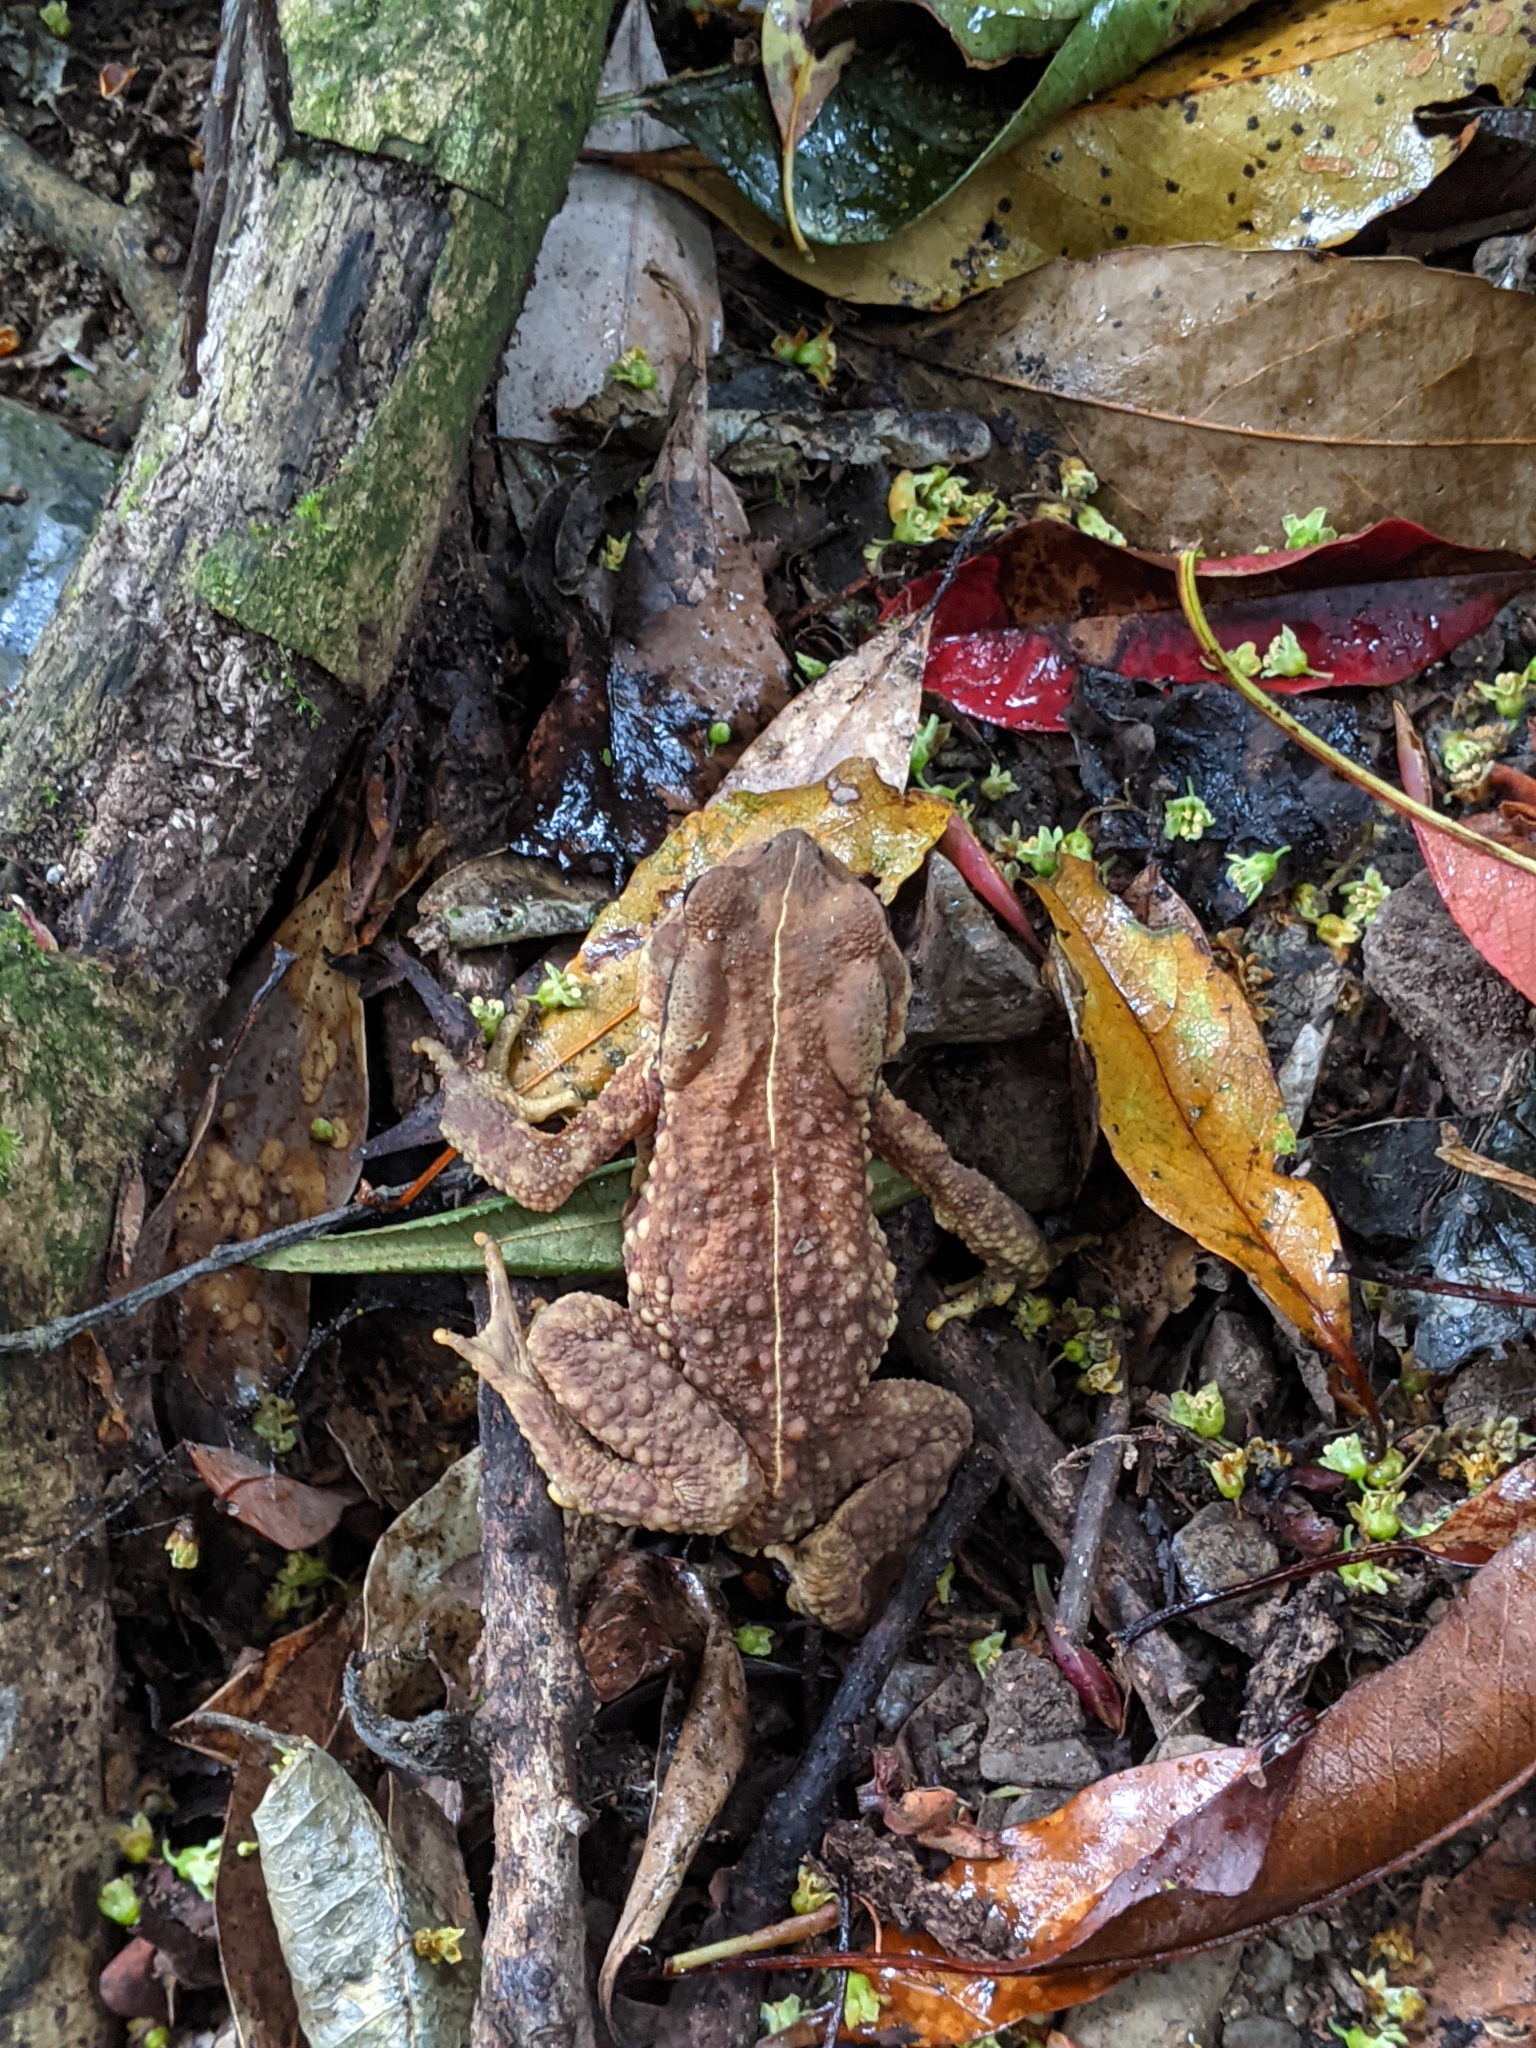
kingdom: Animalia
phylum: Chordata
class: Amphibia
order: Anura
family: Bufonidae
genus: Bufo
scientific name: Bufo bankorensis
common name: Bankor toad
